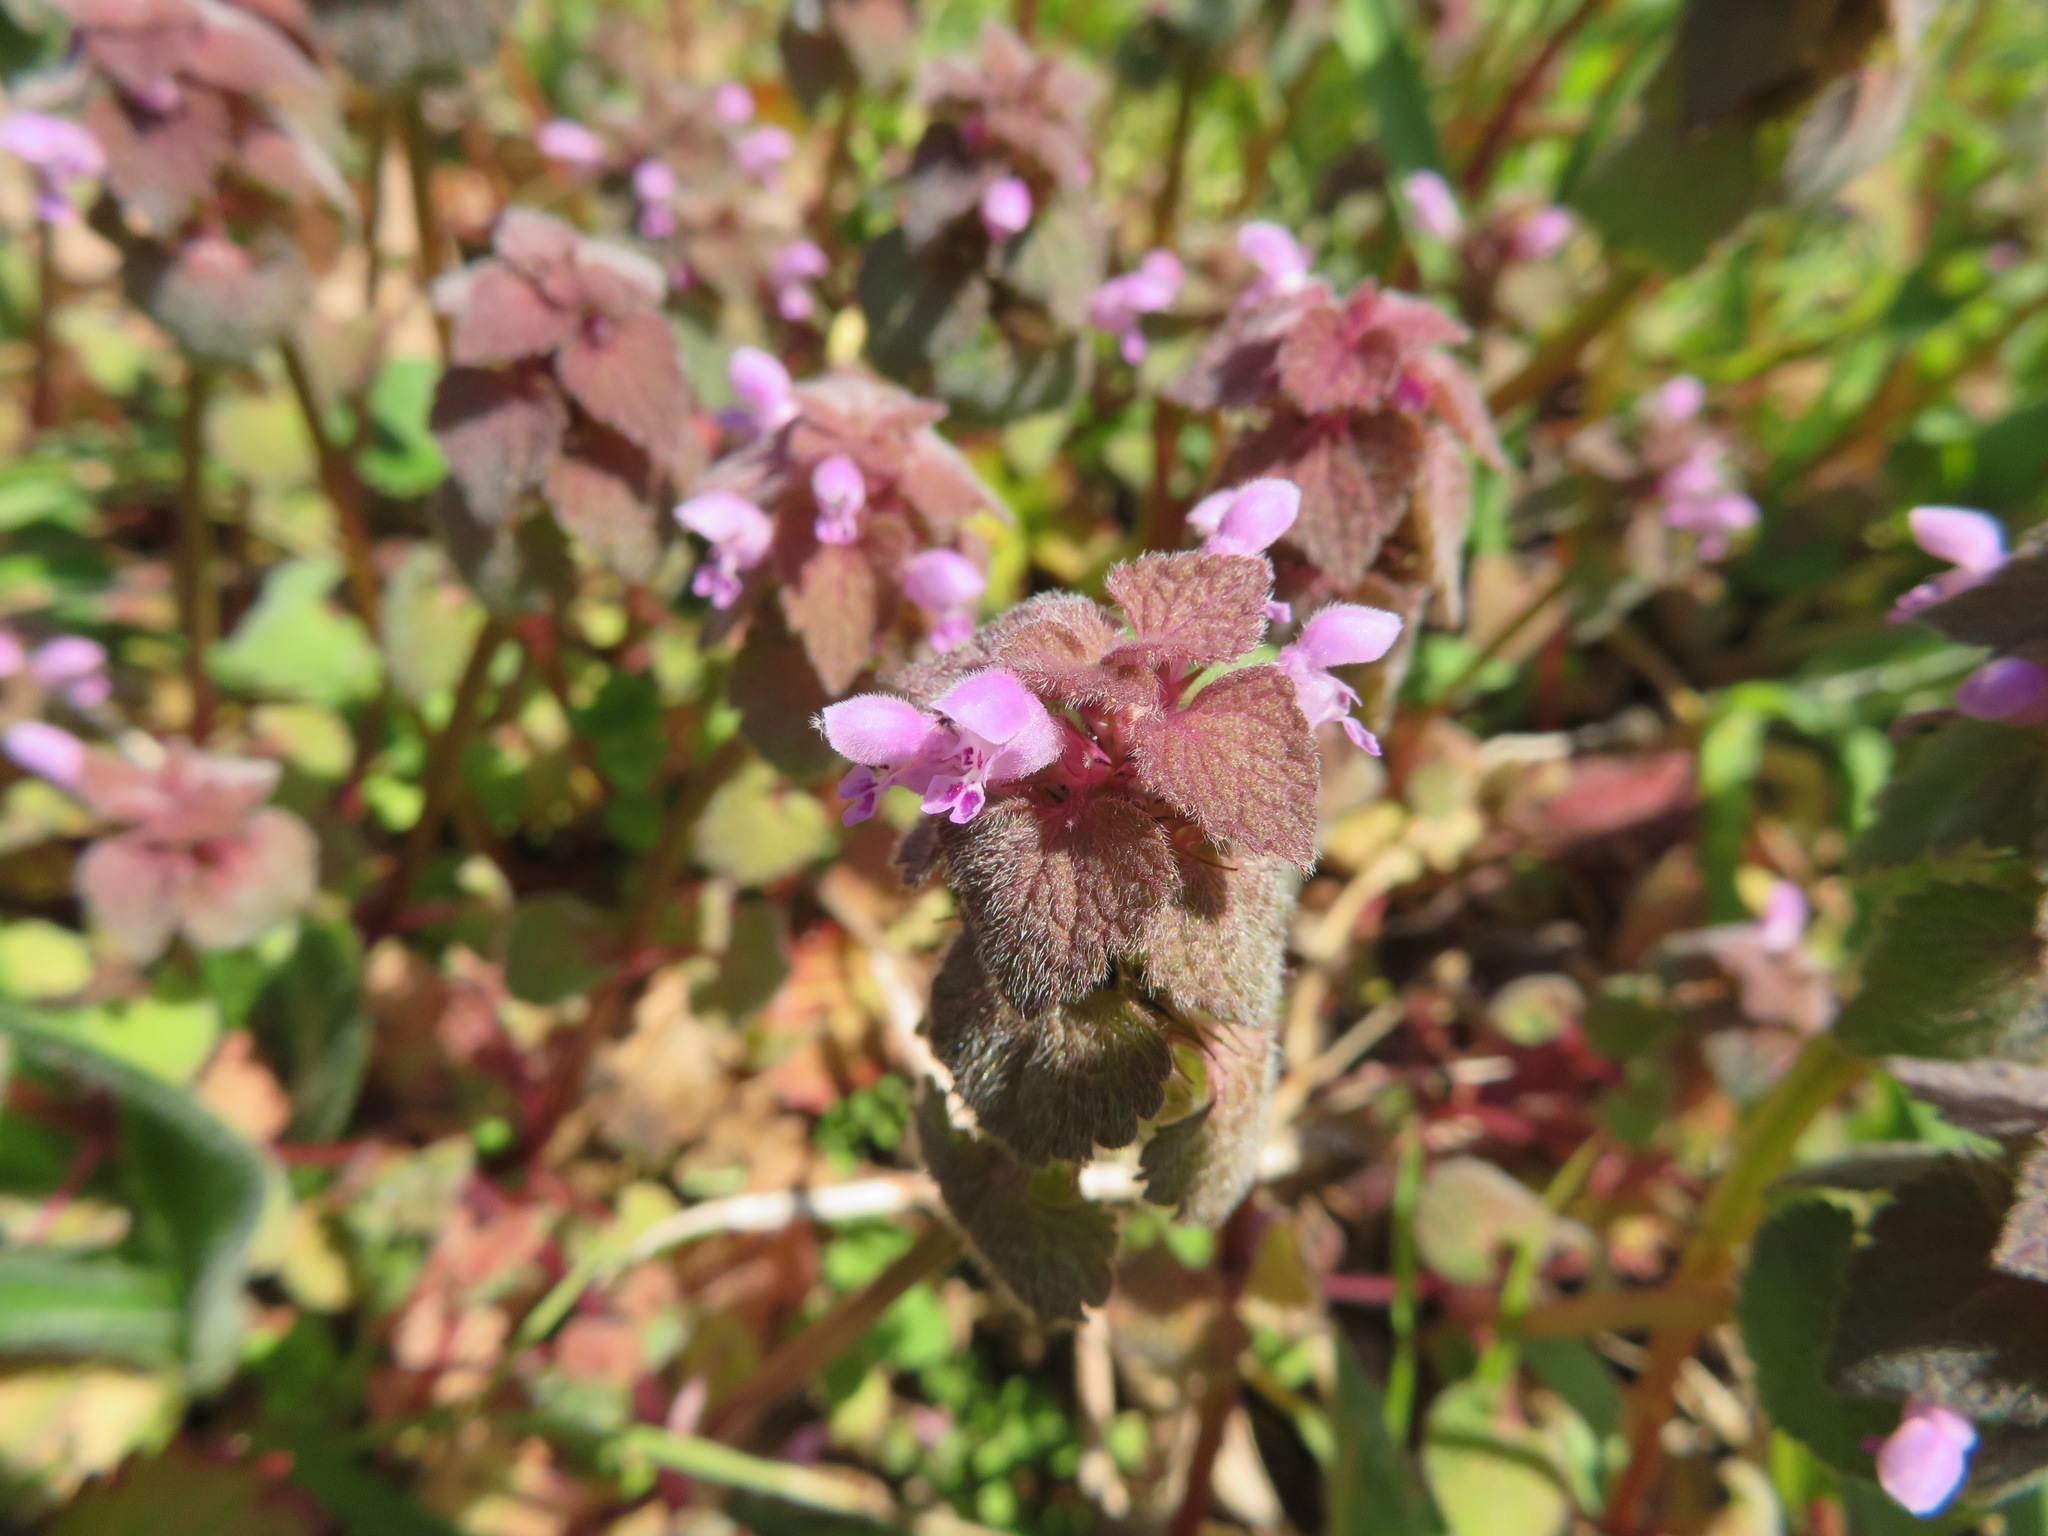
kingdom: Plantae
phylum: Tracheophyta
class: Magnoliopsida
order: Lamiales
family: Lamiaceae
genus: Lamium
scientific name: Lamium purpureum
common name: Red dead-nettle
